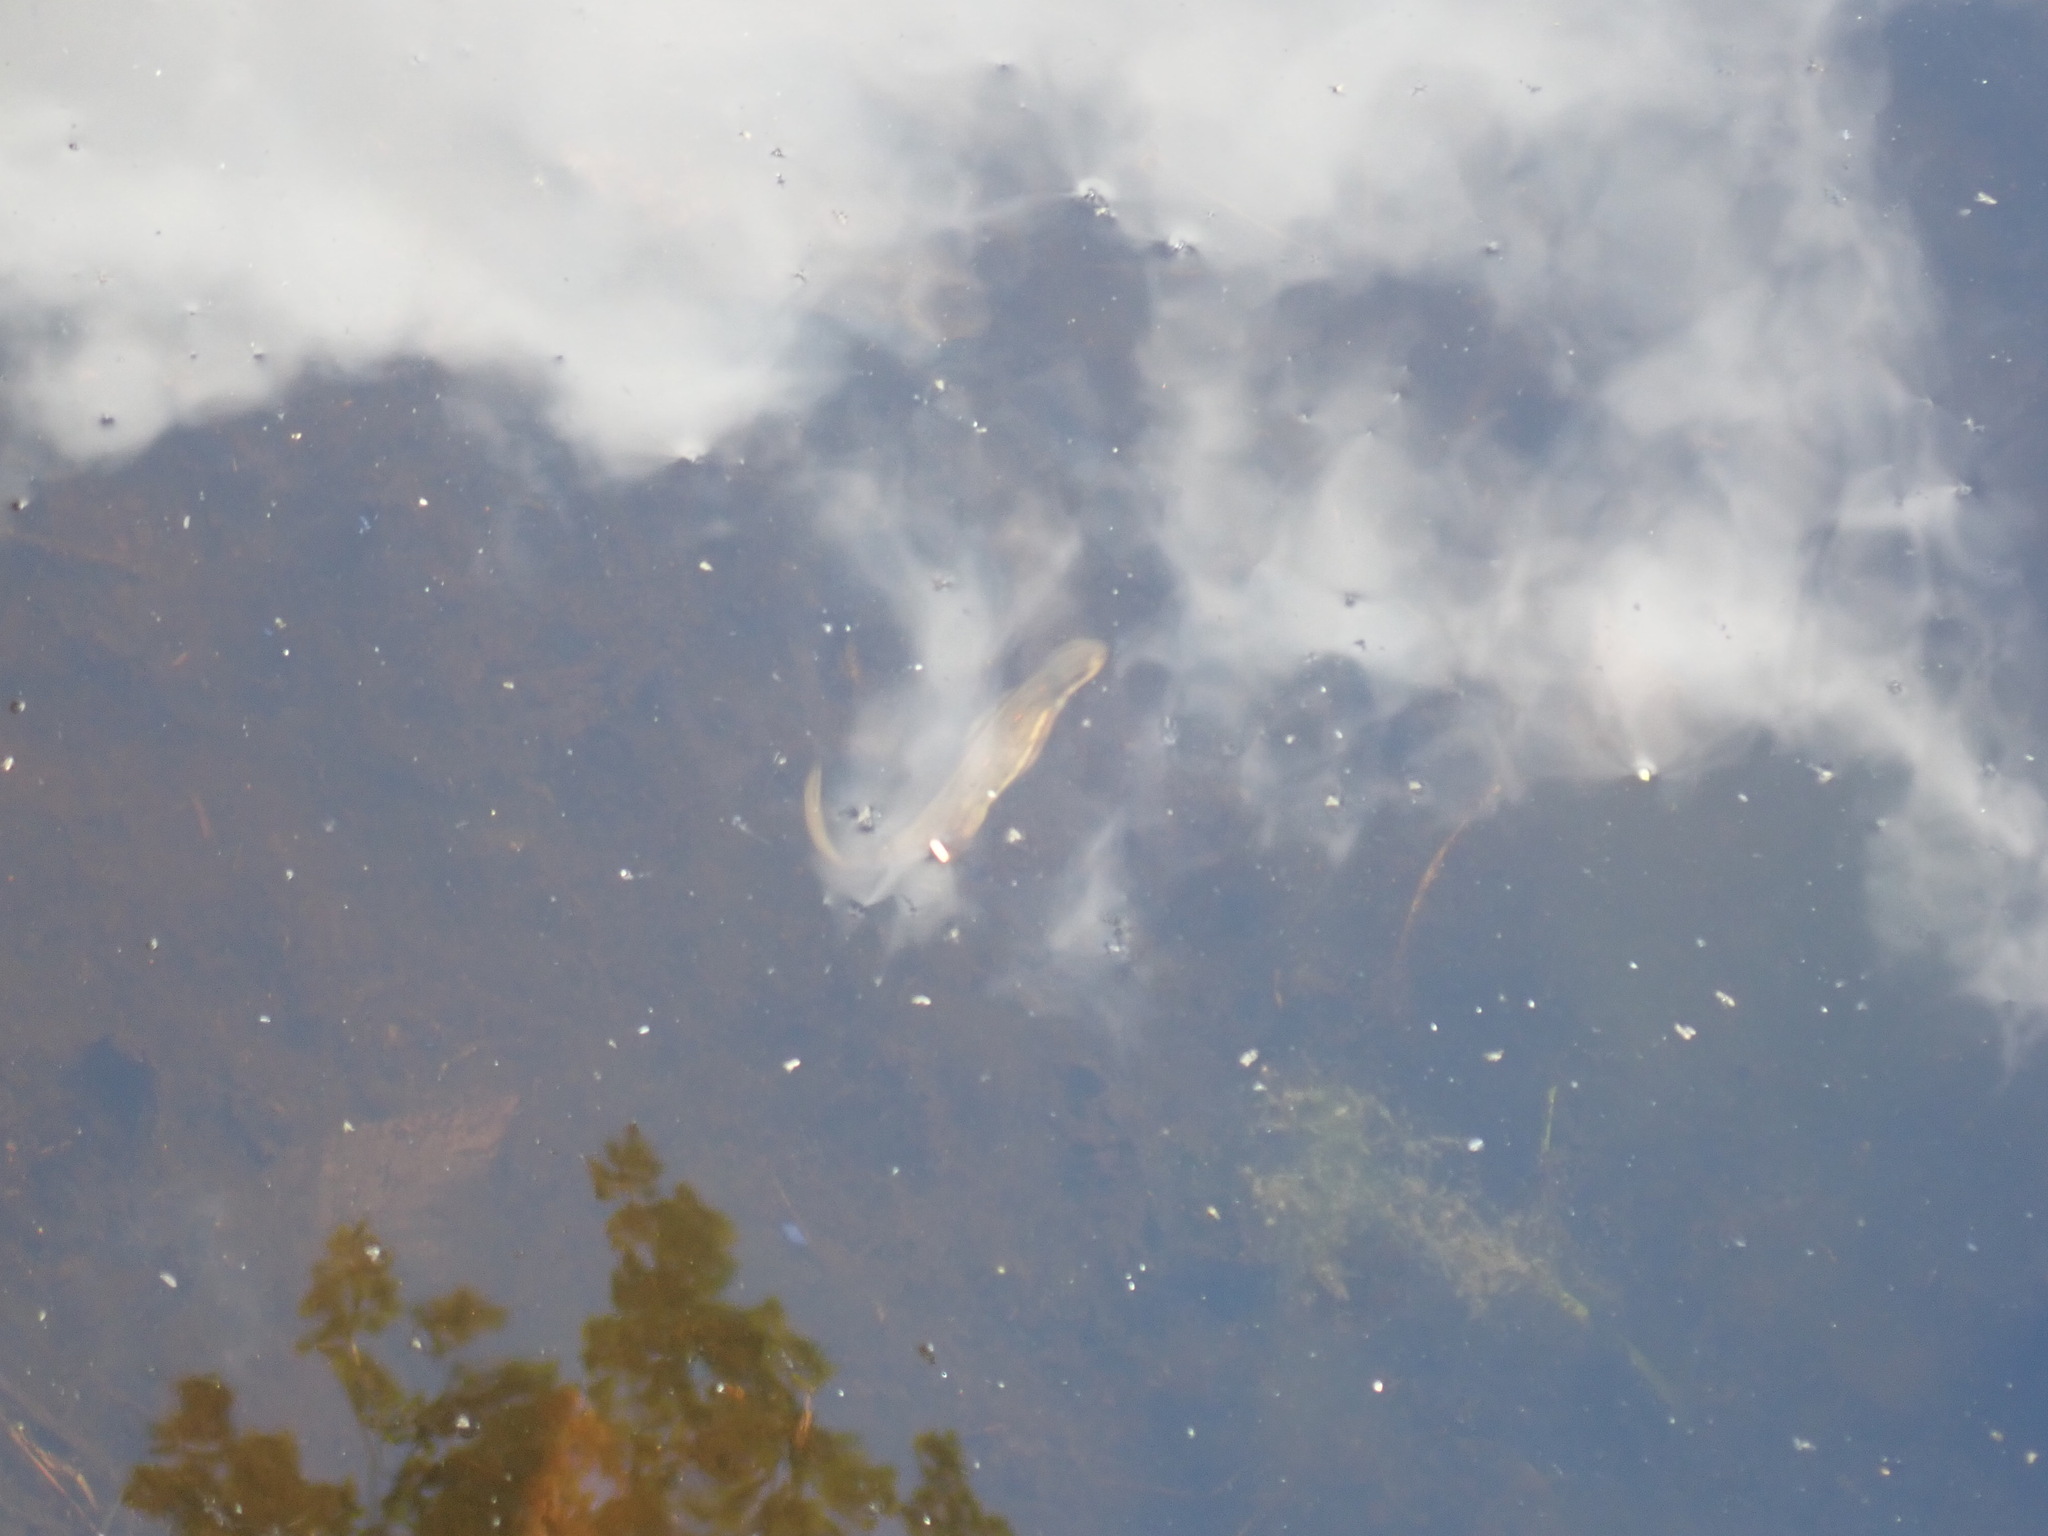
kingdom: Animalia
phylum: Chordata
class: Amphibia
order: Caudata
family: Salamandridae
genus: Notophthalmus
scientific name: Notophthalmus viridescens
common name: Eastern newt
